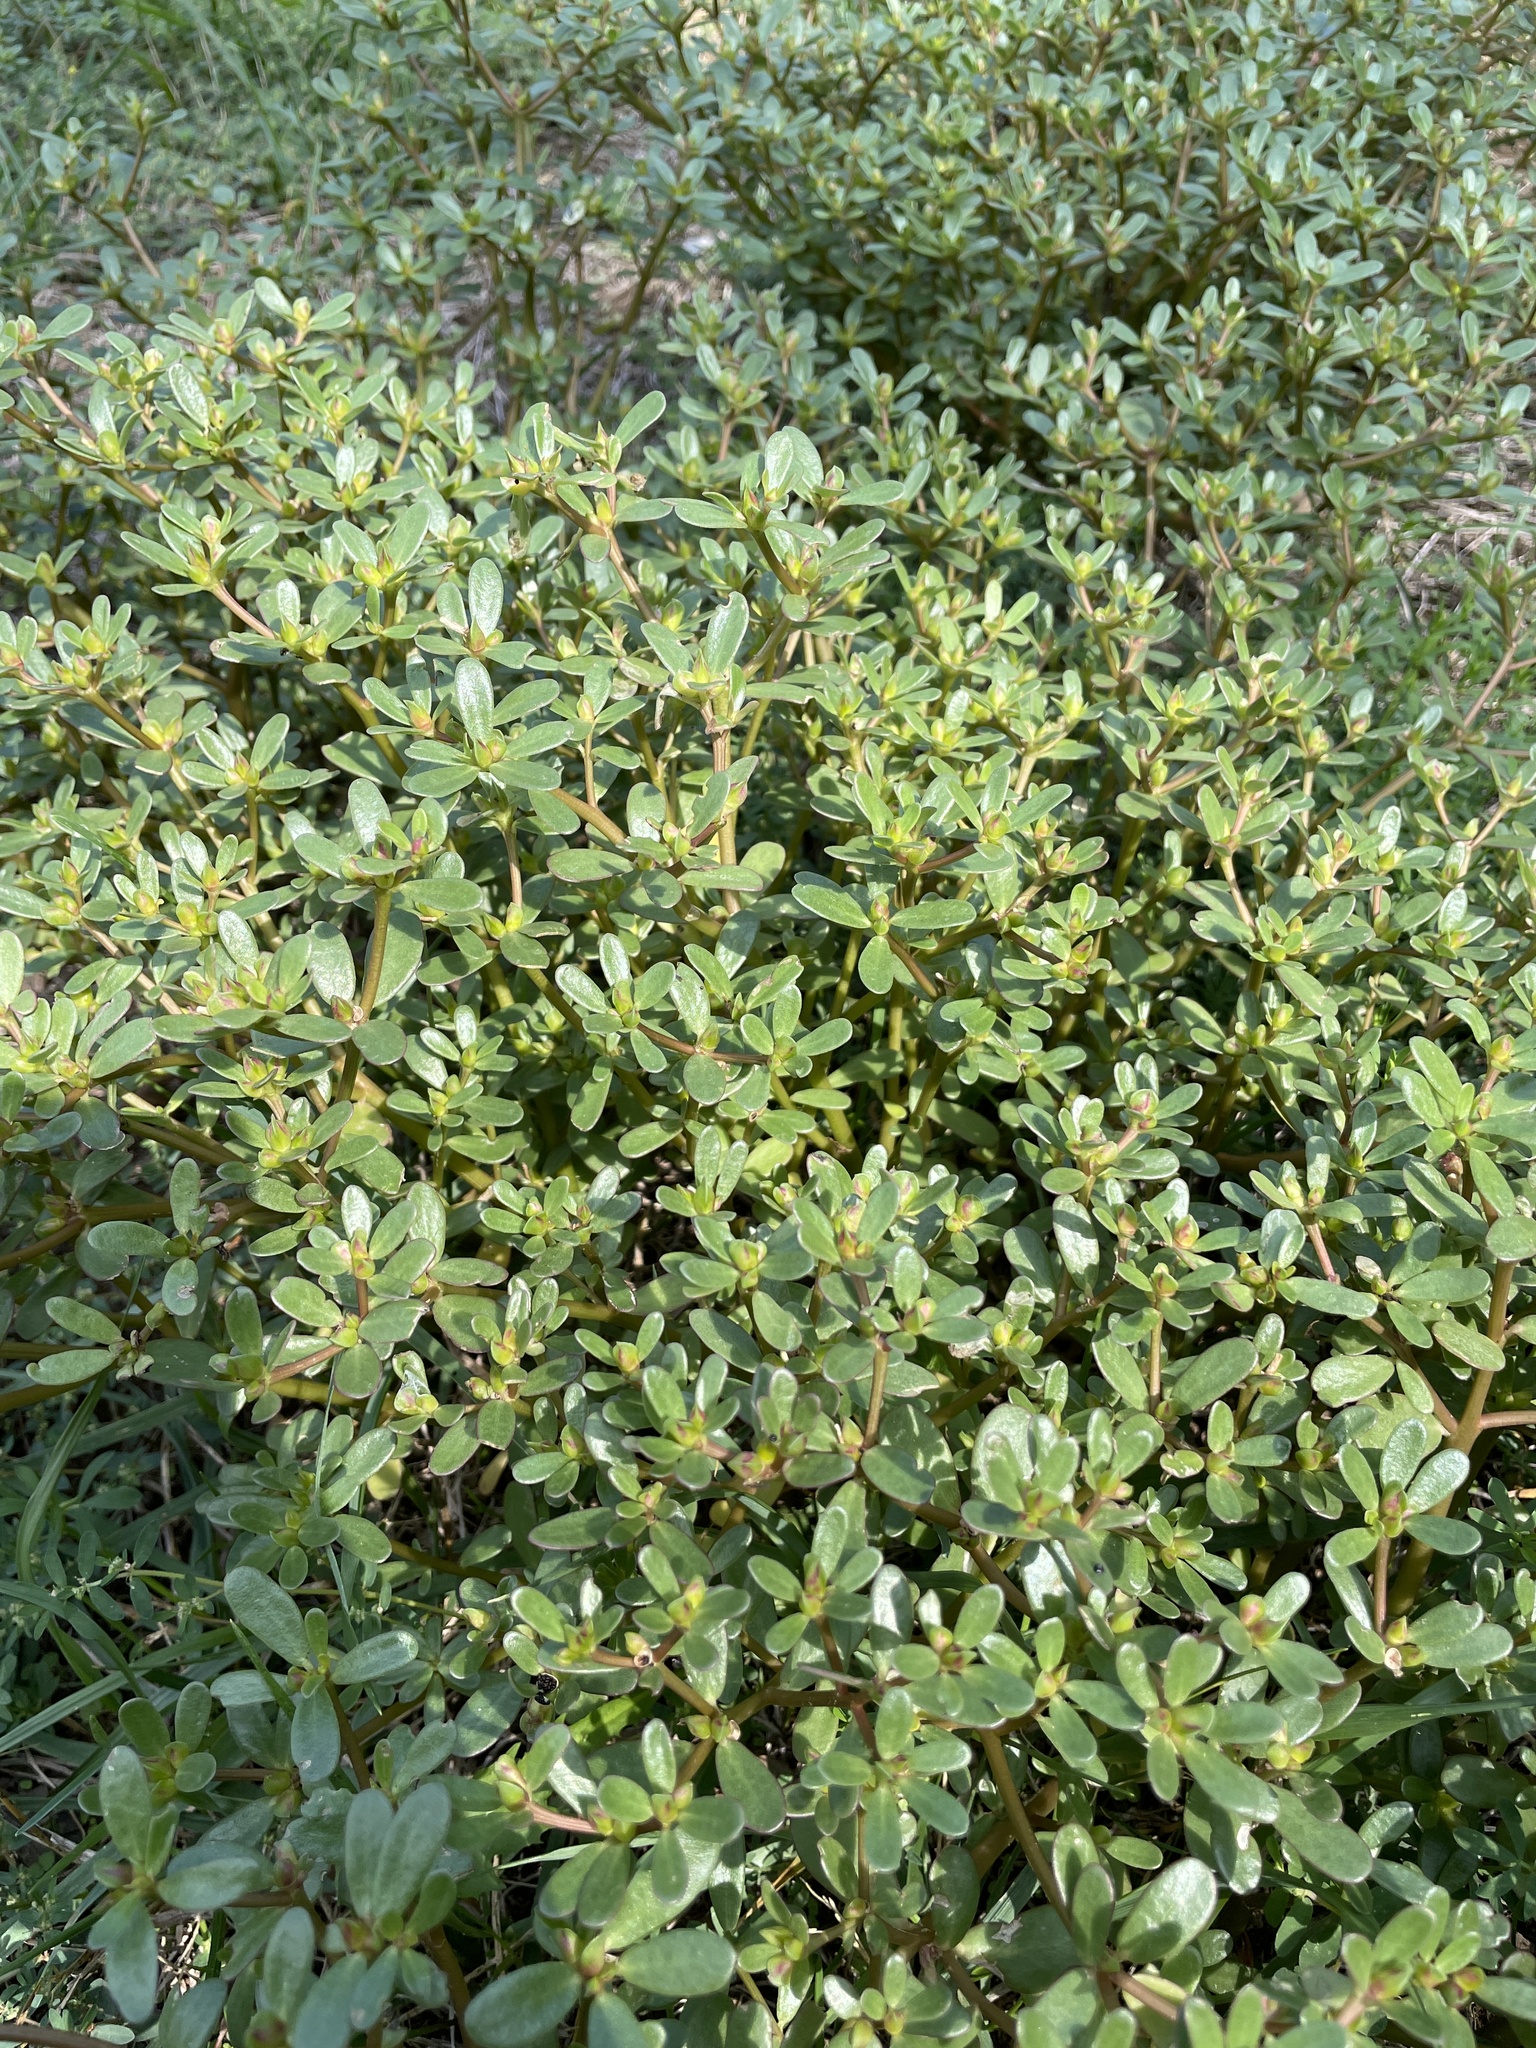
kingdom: Plantae
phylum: Tracheophyta
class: Magnoliopsida
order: Caryophyllales
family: Portulacaceae
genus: Portulaca
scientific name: Portulaca oleracea
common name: Common purslane
